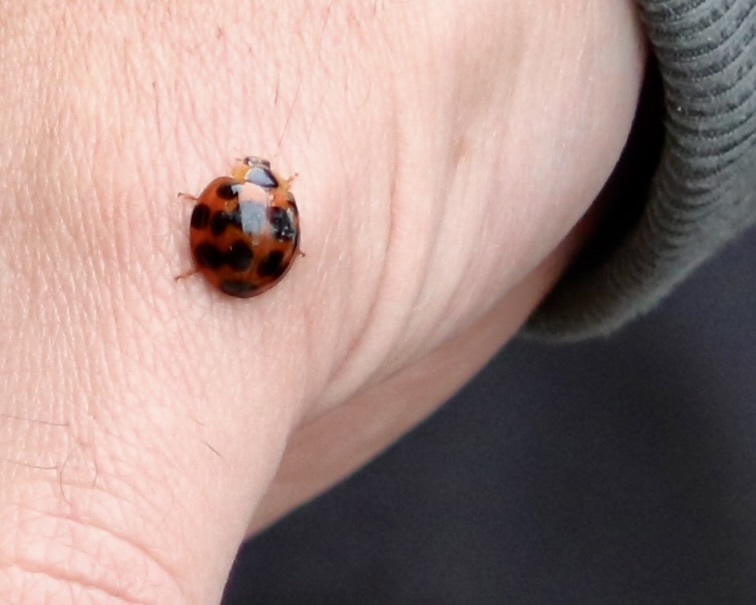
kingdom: Animalia
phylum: Arthropoda
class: Insecta
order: Coleoptera
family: Coccinellidae
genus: Harmonia
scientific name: Harmonia dimidiata
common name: Ladybird beetle
